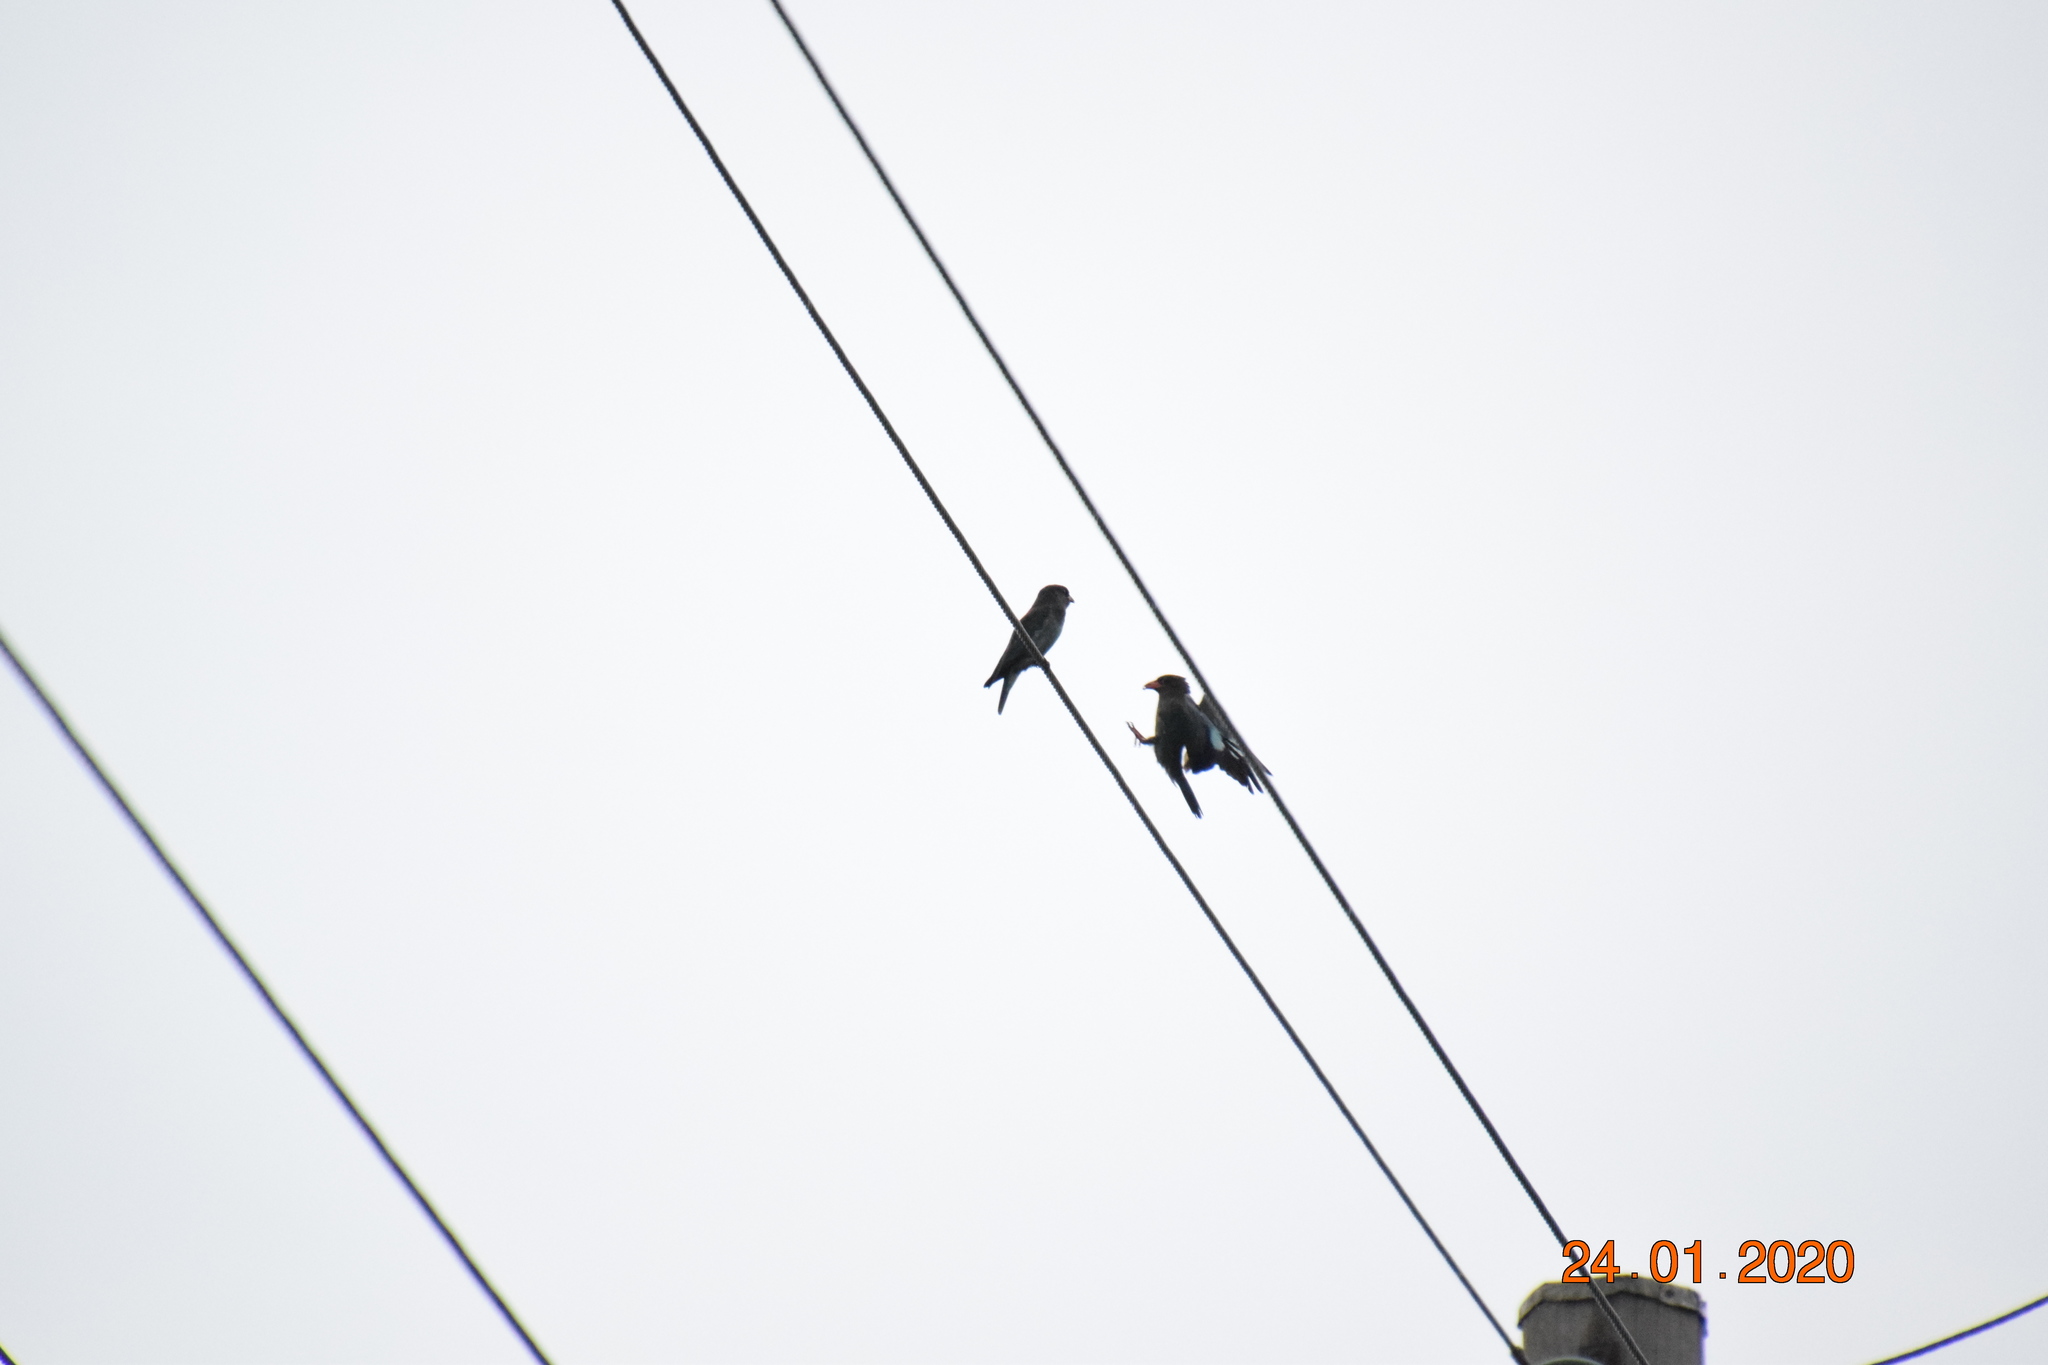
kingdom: Animalia
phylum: Chordata
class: Aves
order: Coraciiformes
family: Coraciidae
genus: Eurystomus
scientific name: Eurystomus orientalis
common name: Oriental dollarbird
